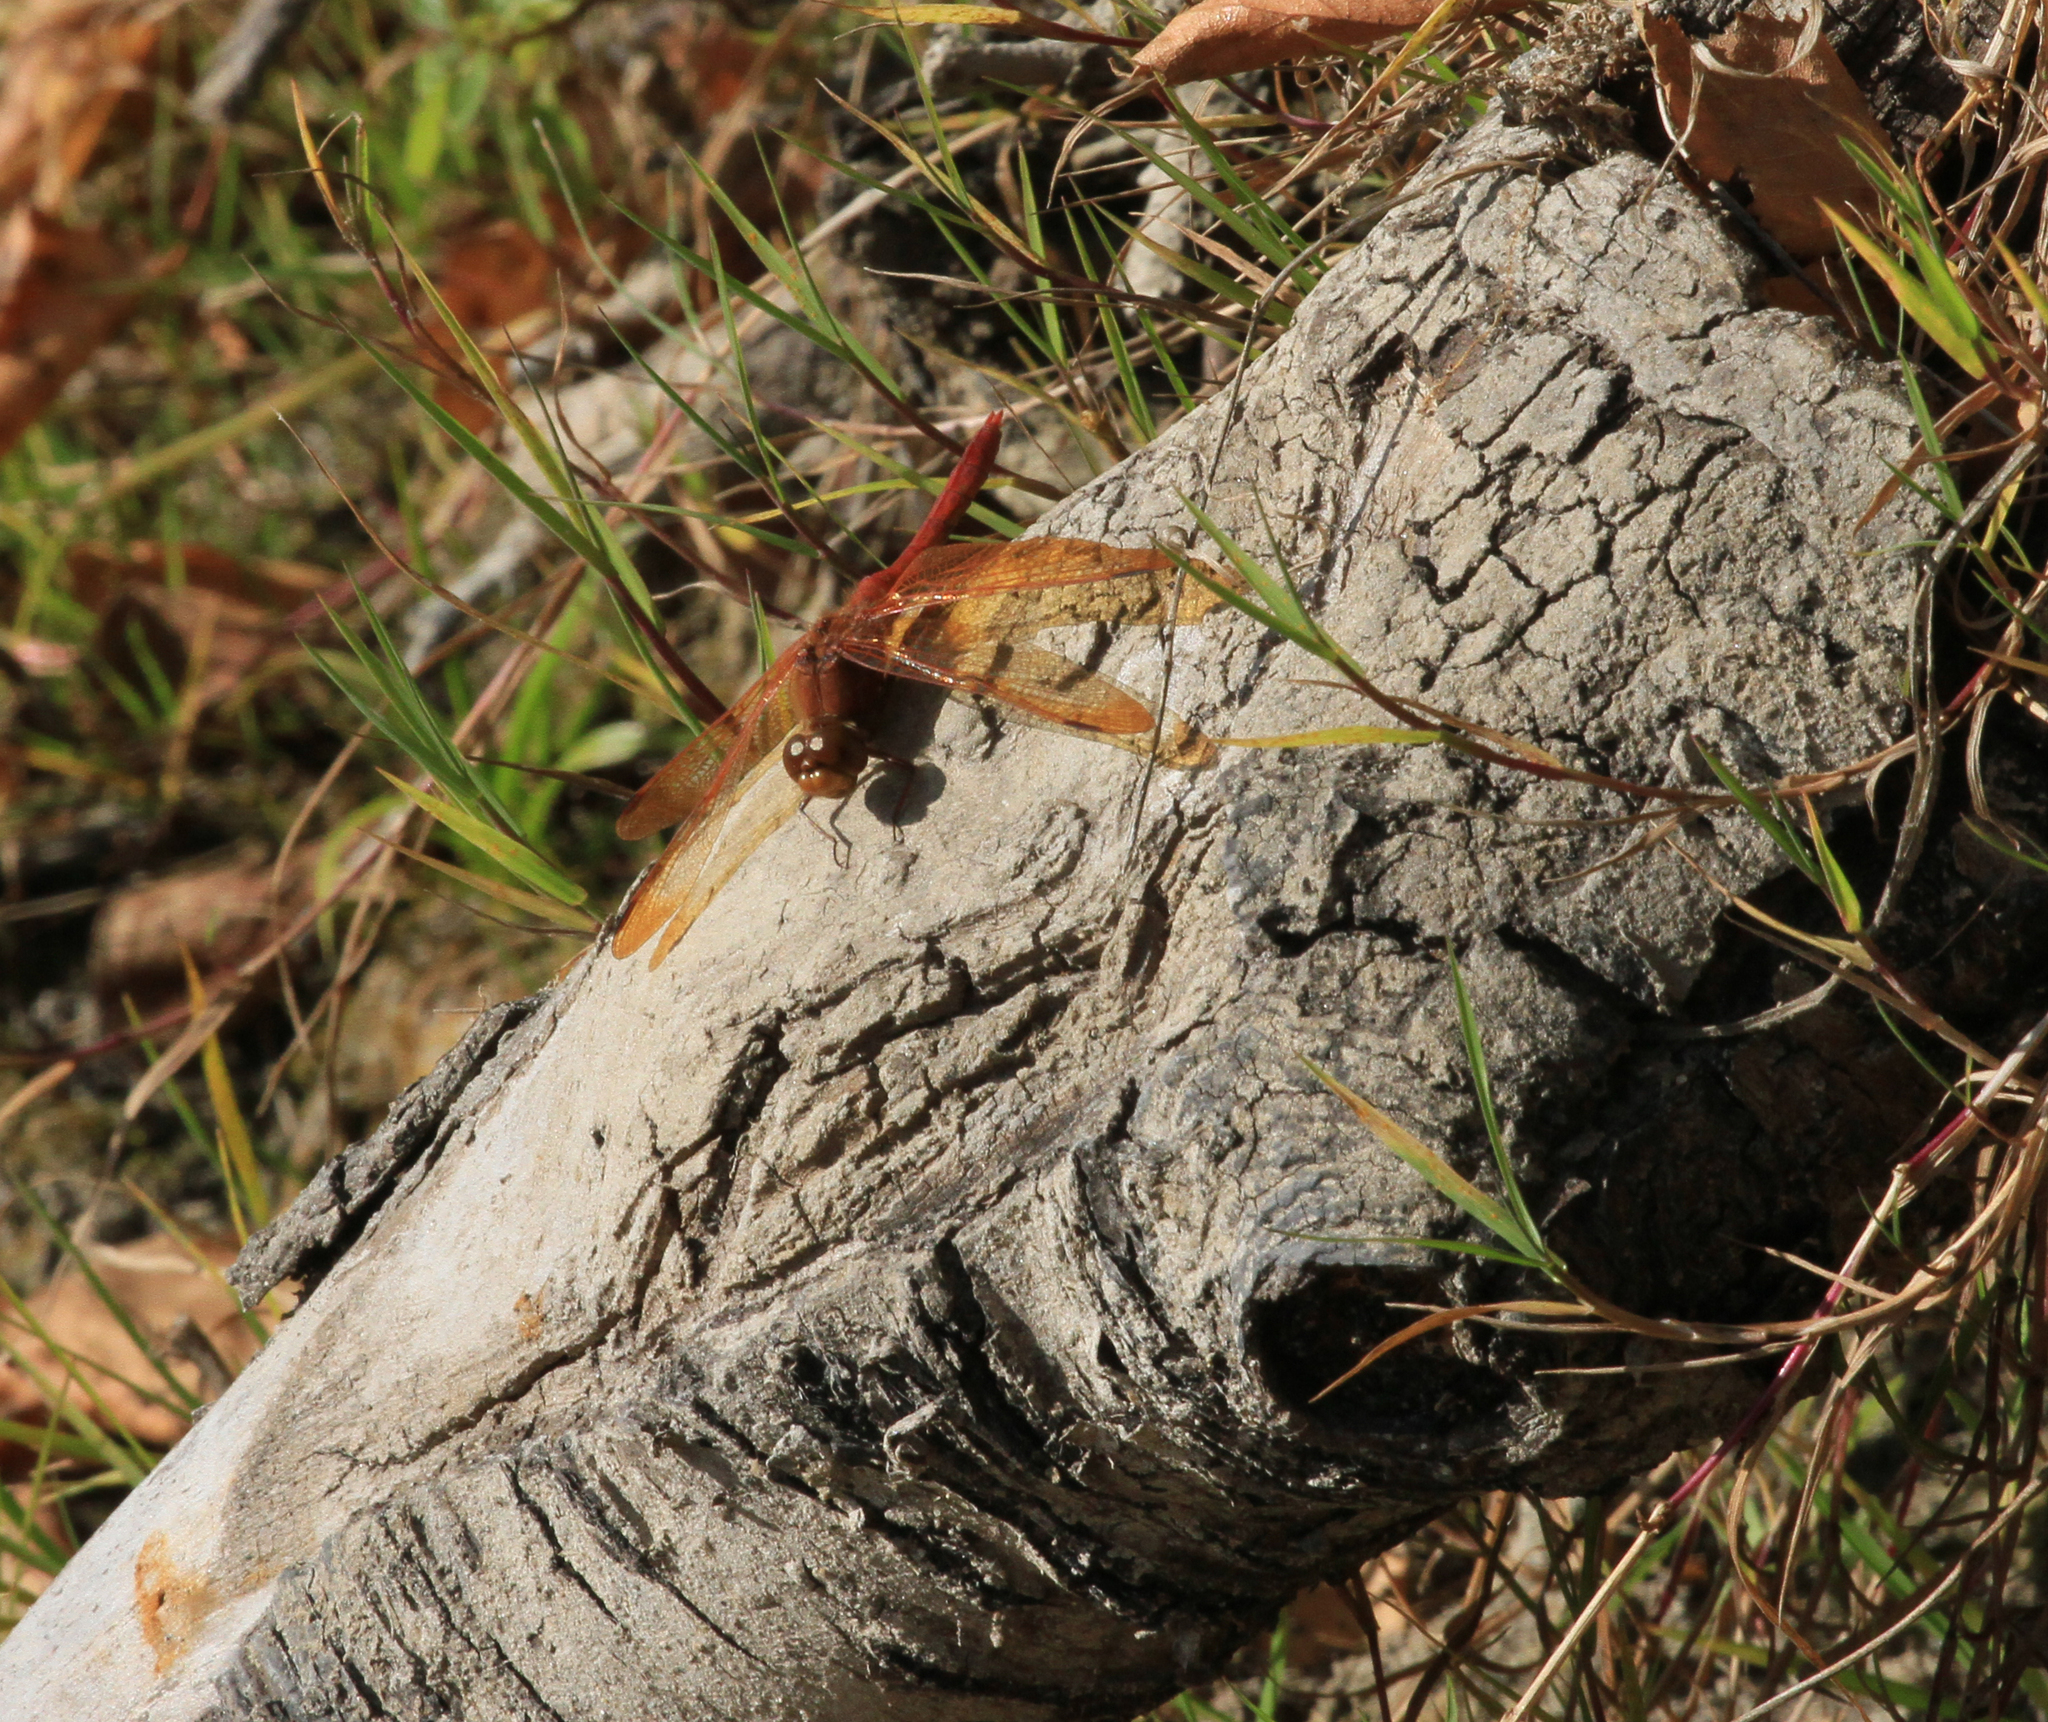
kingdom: Animalia
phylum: Arthropoda
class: Insecta
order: Odonata
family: Libellulidae
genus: Sympetrum
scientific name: Sympetrum croceolum
